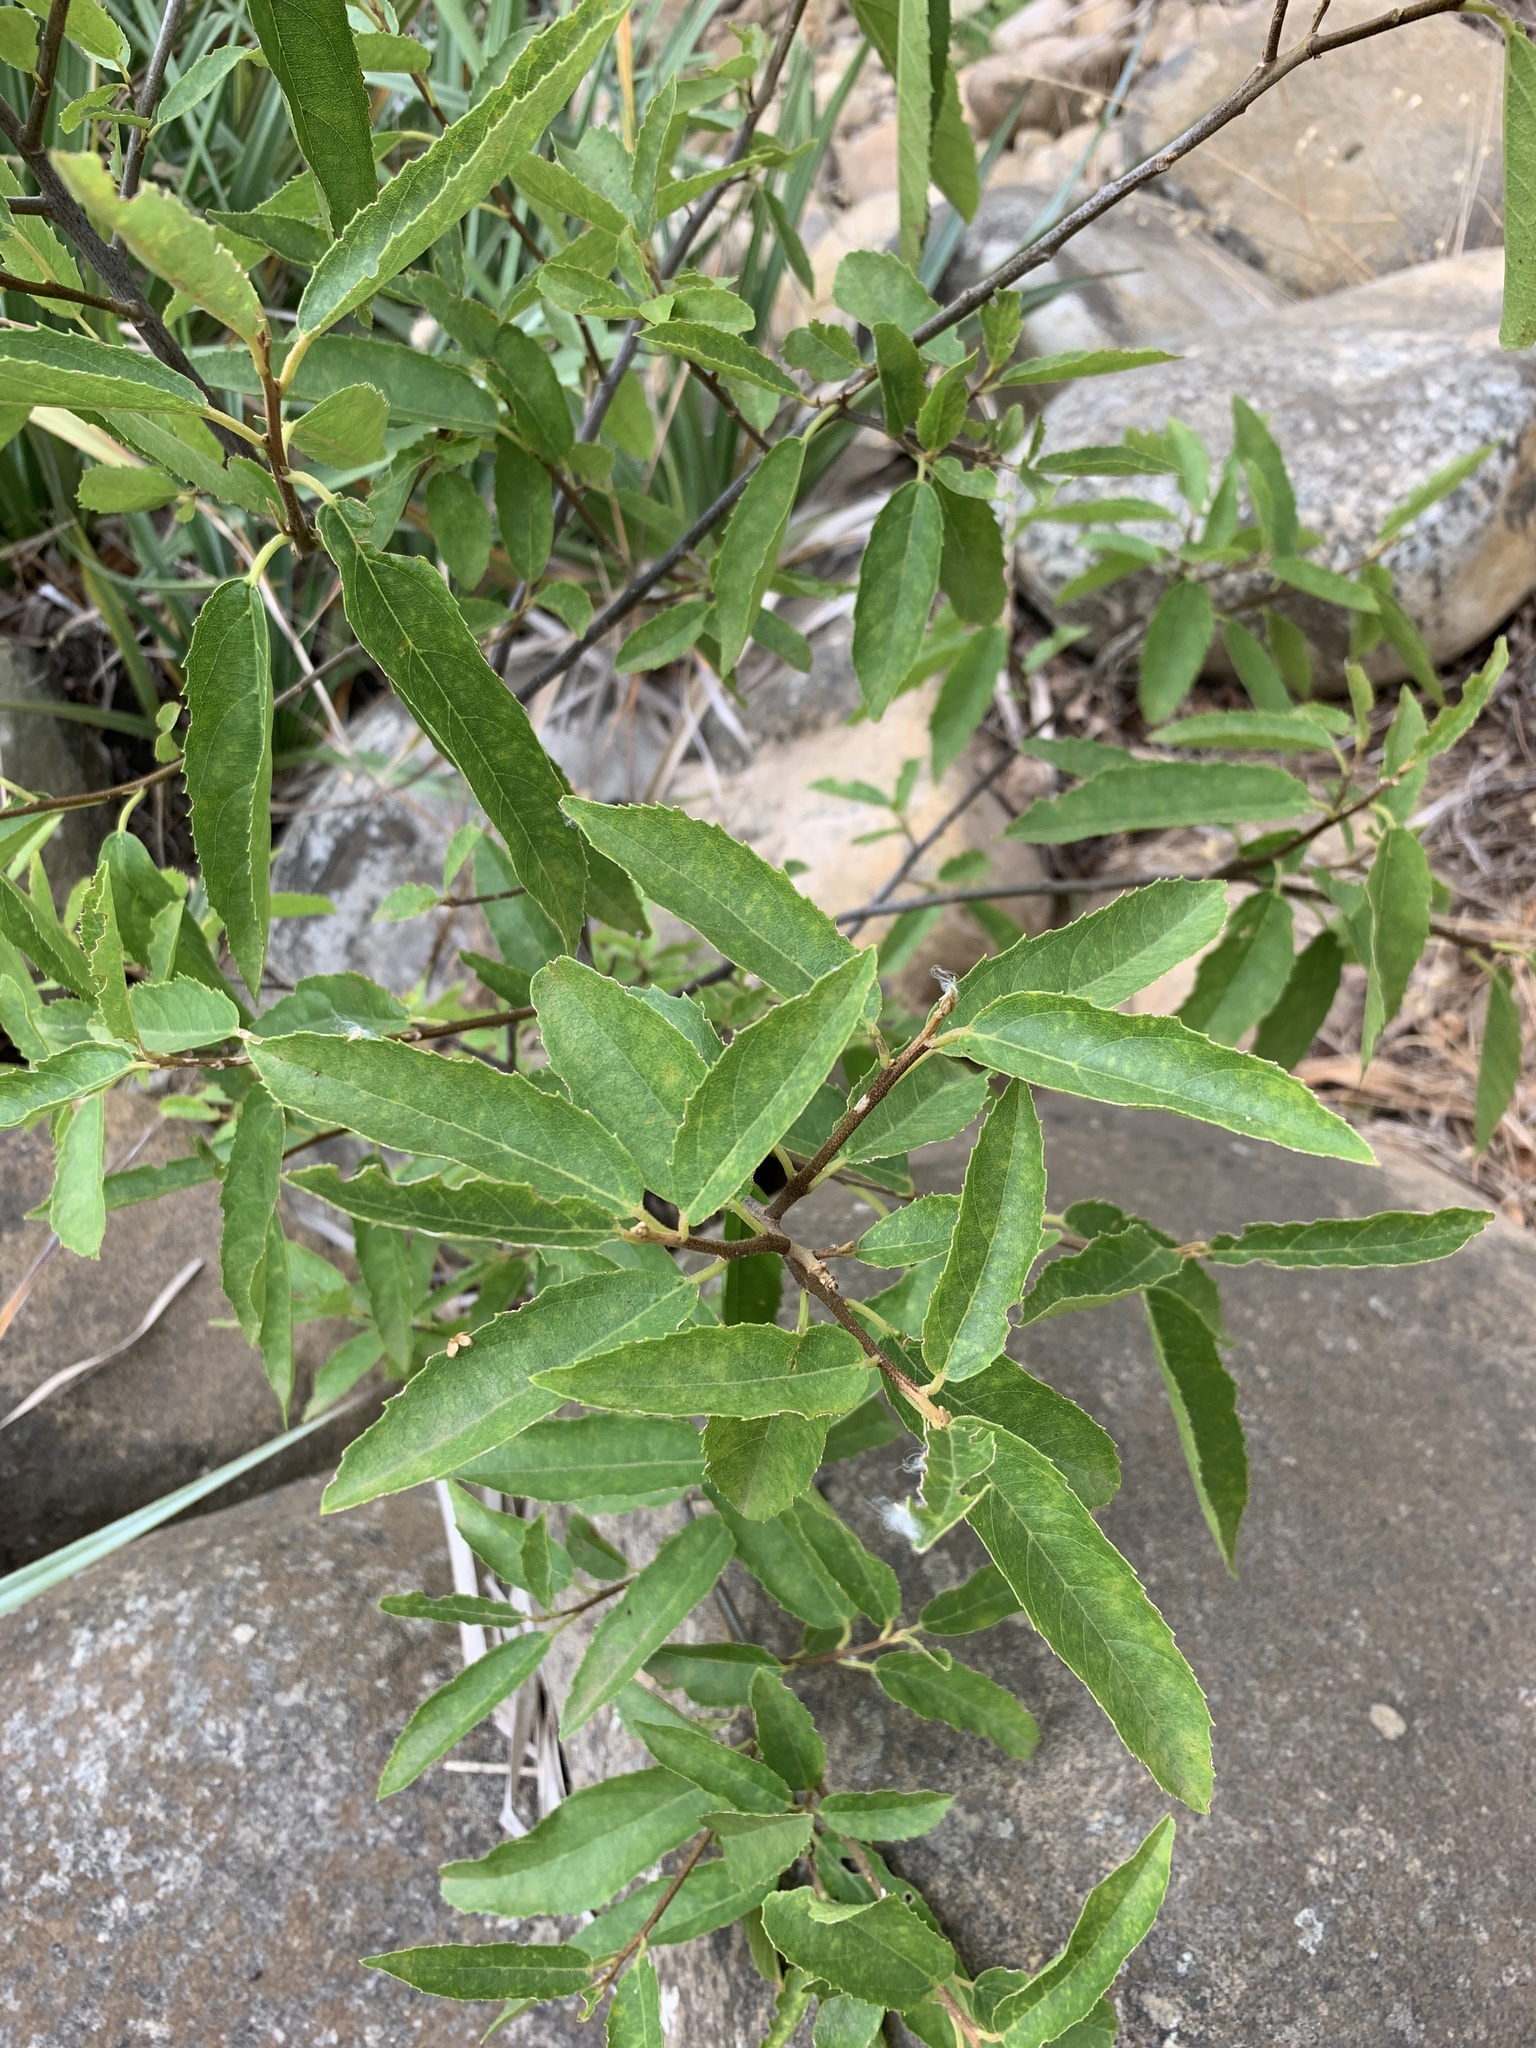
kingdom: Plantae
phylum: Tracheophyta
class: Magnoliopsida
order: Malpighiales
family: Achariaceae
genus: Kiggelaria
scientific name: Kiggelaria africana
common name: Wild peach
